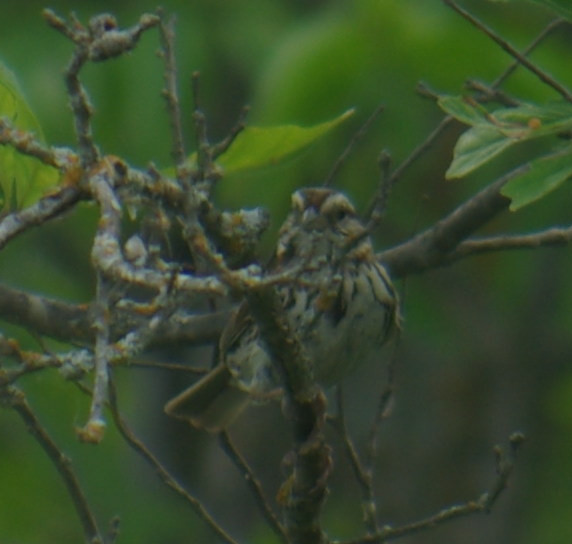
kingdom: Animalia
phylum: Chordata
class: Aves
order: Passeriformes
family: Passerellidae
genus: Melospiza
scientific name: Melospiza melodia
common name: Song sparrow
